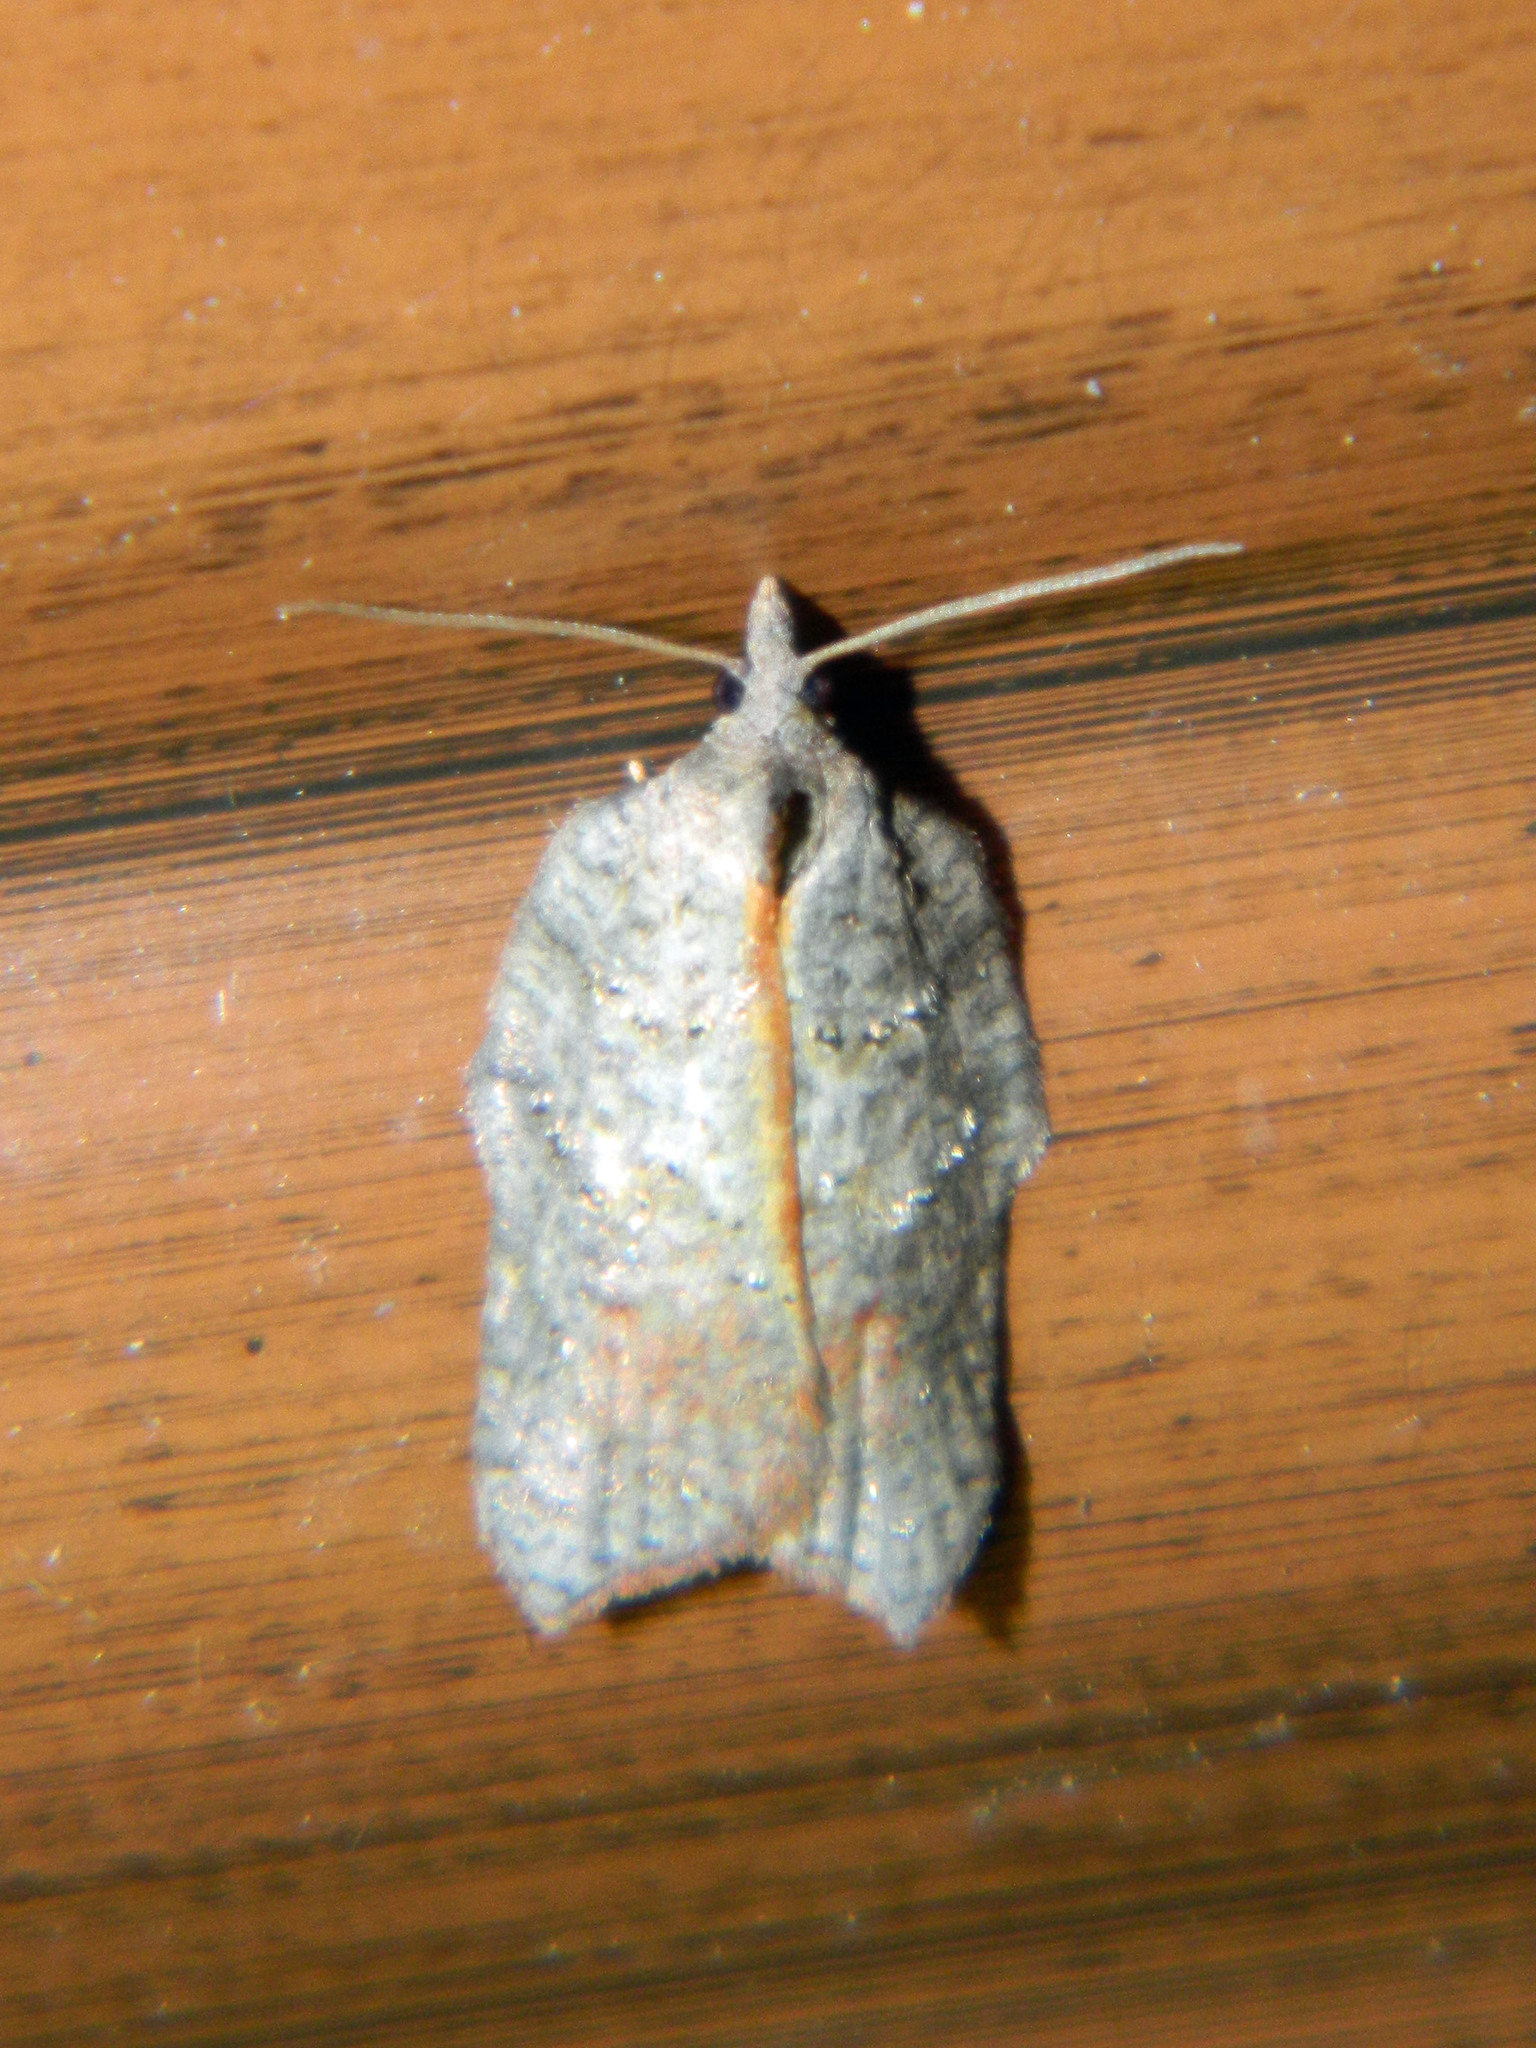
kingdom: Animalia
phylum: Arthropoda
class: Insecta
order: Lepidoptera
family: Tortricidae
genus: Acleris
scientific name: Acleris effractana
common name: Hook-winged tortrix moth
